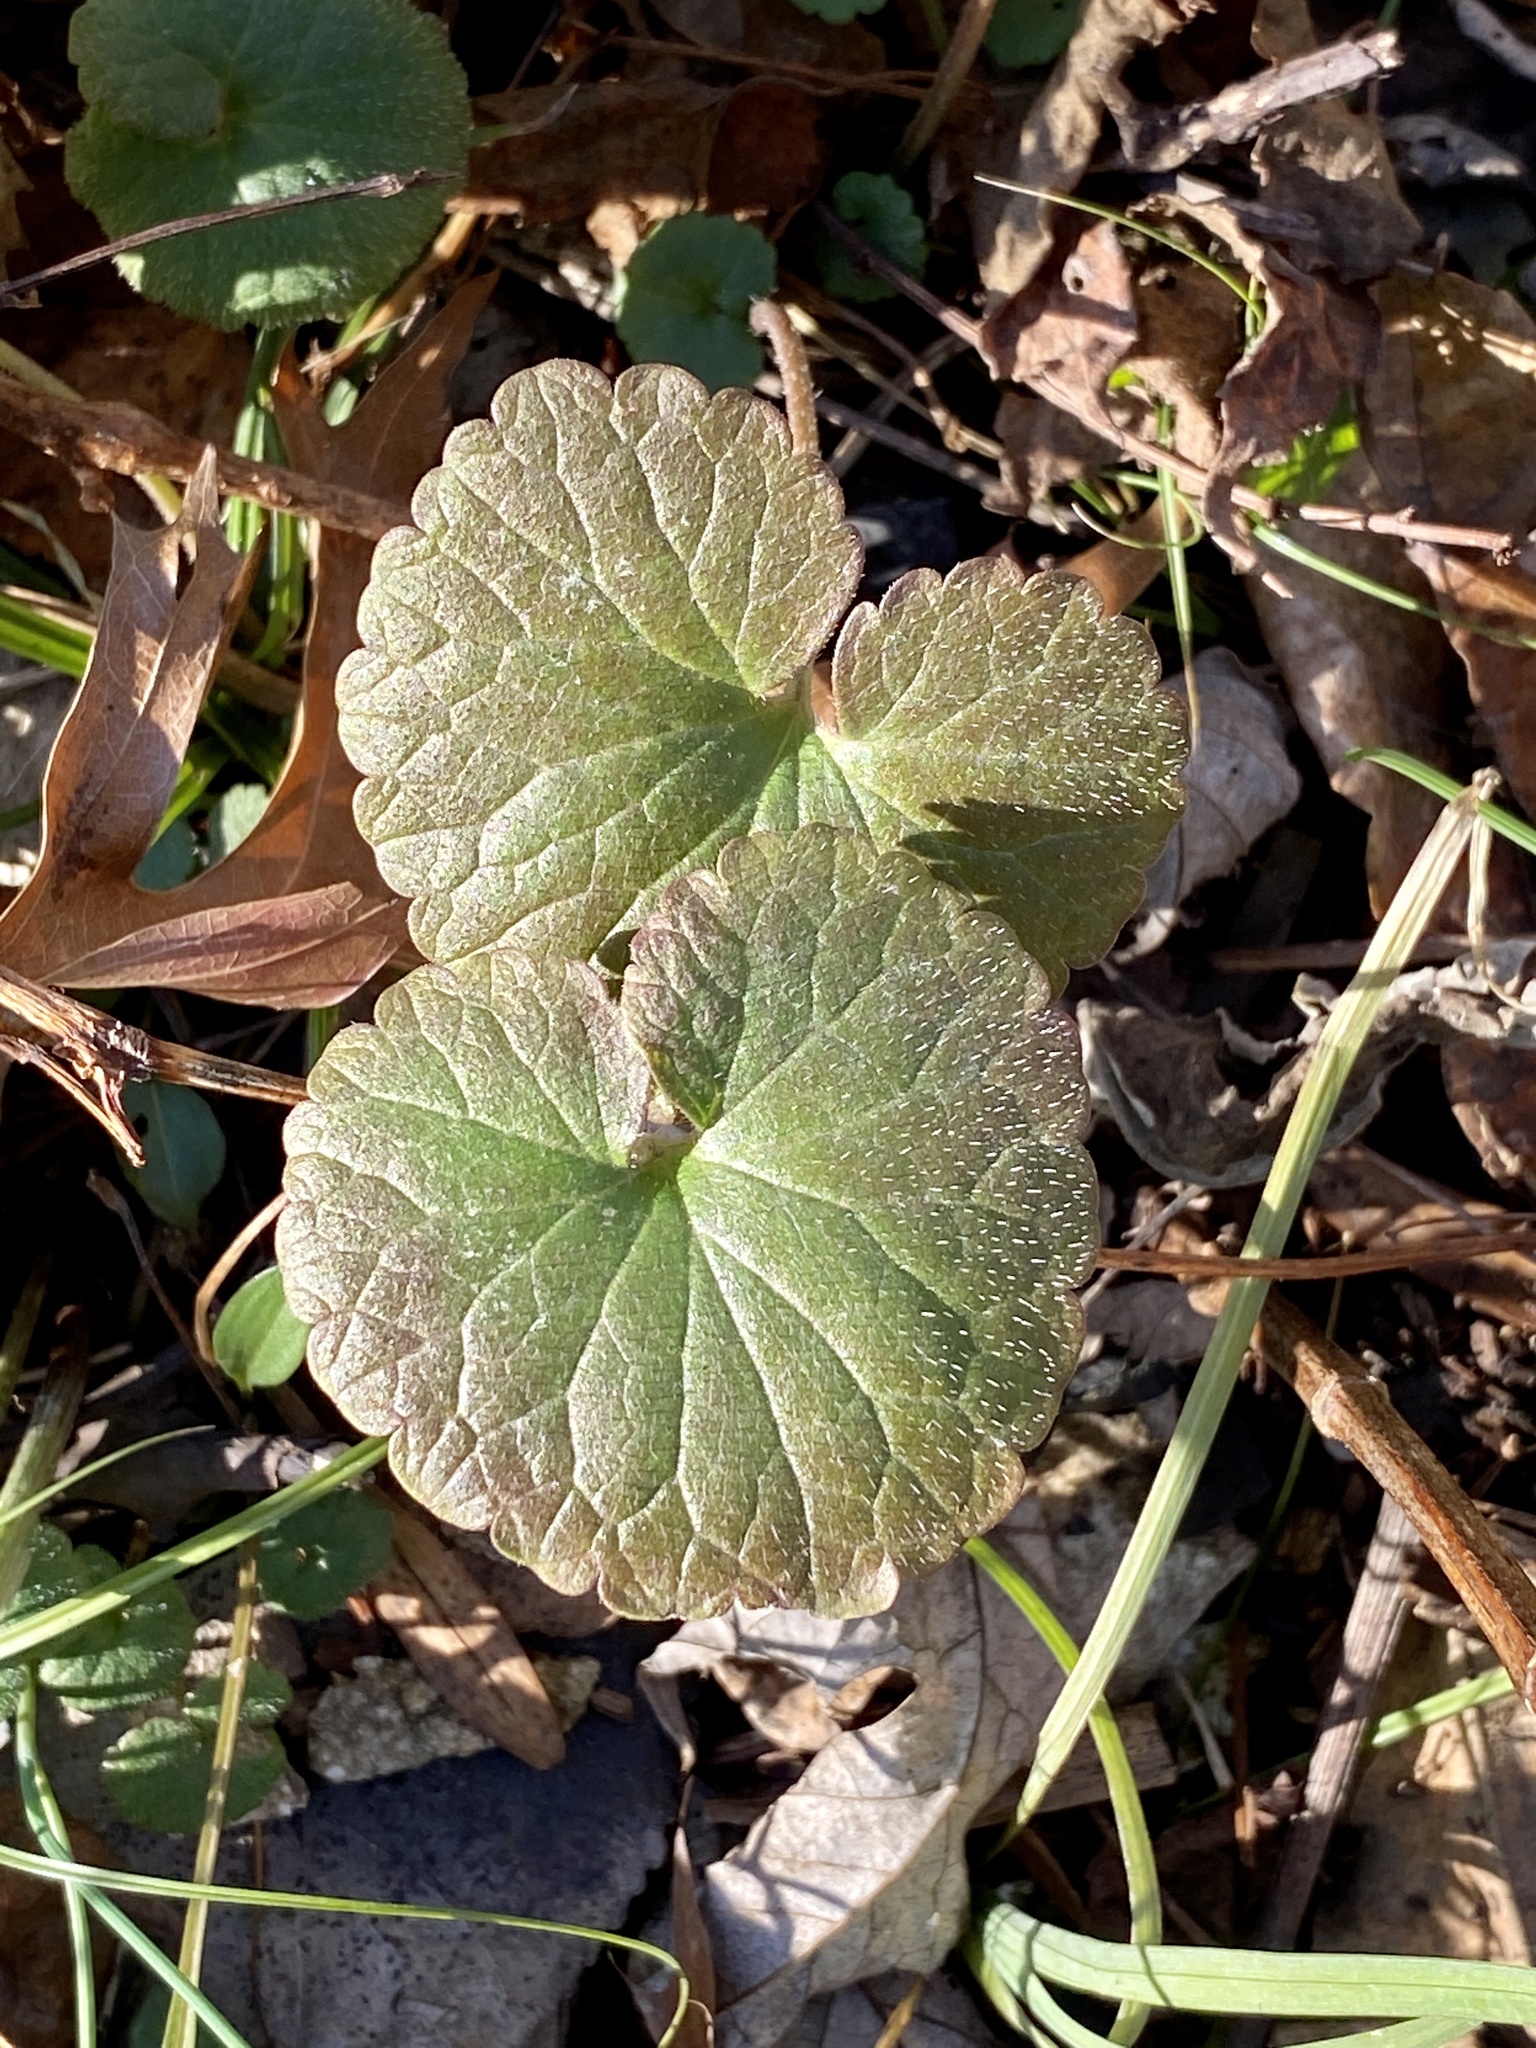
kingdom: Plantae
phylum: Tracheophyta
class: Magnoliopsida
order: Lamiales
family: Lamiaceae
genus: Glechoma
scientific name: Glechoma hederacea
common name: Ground ivy
